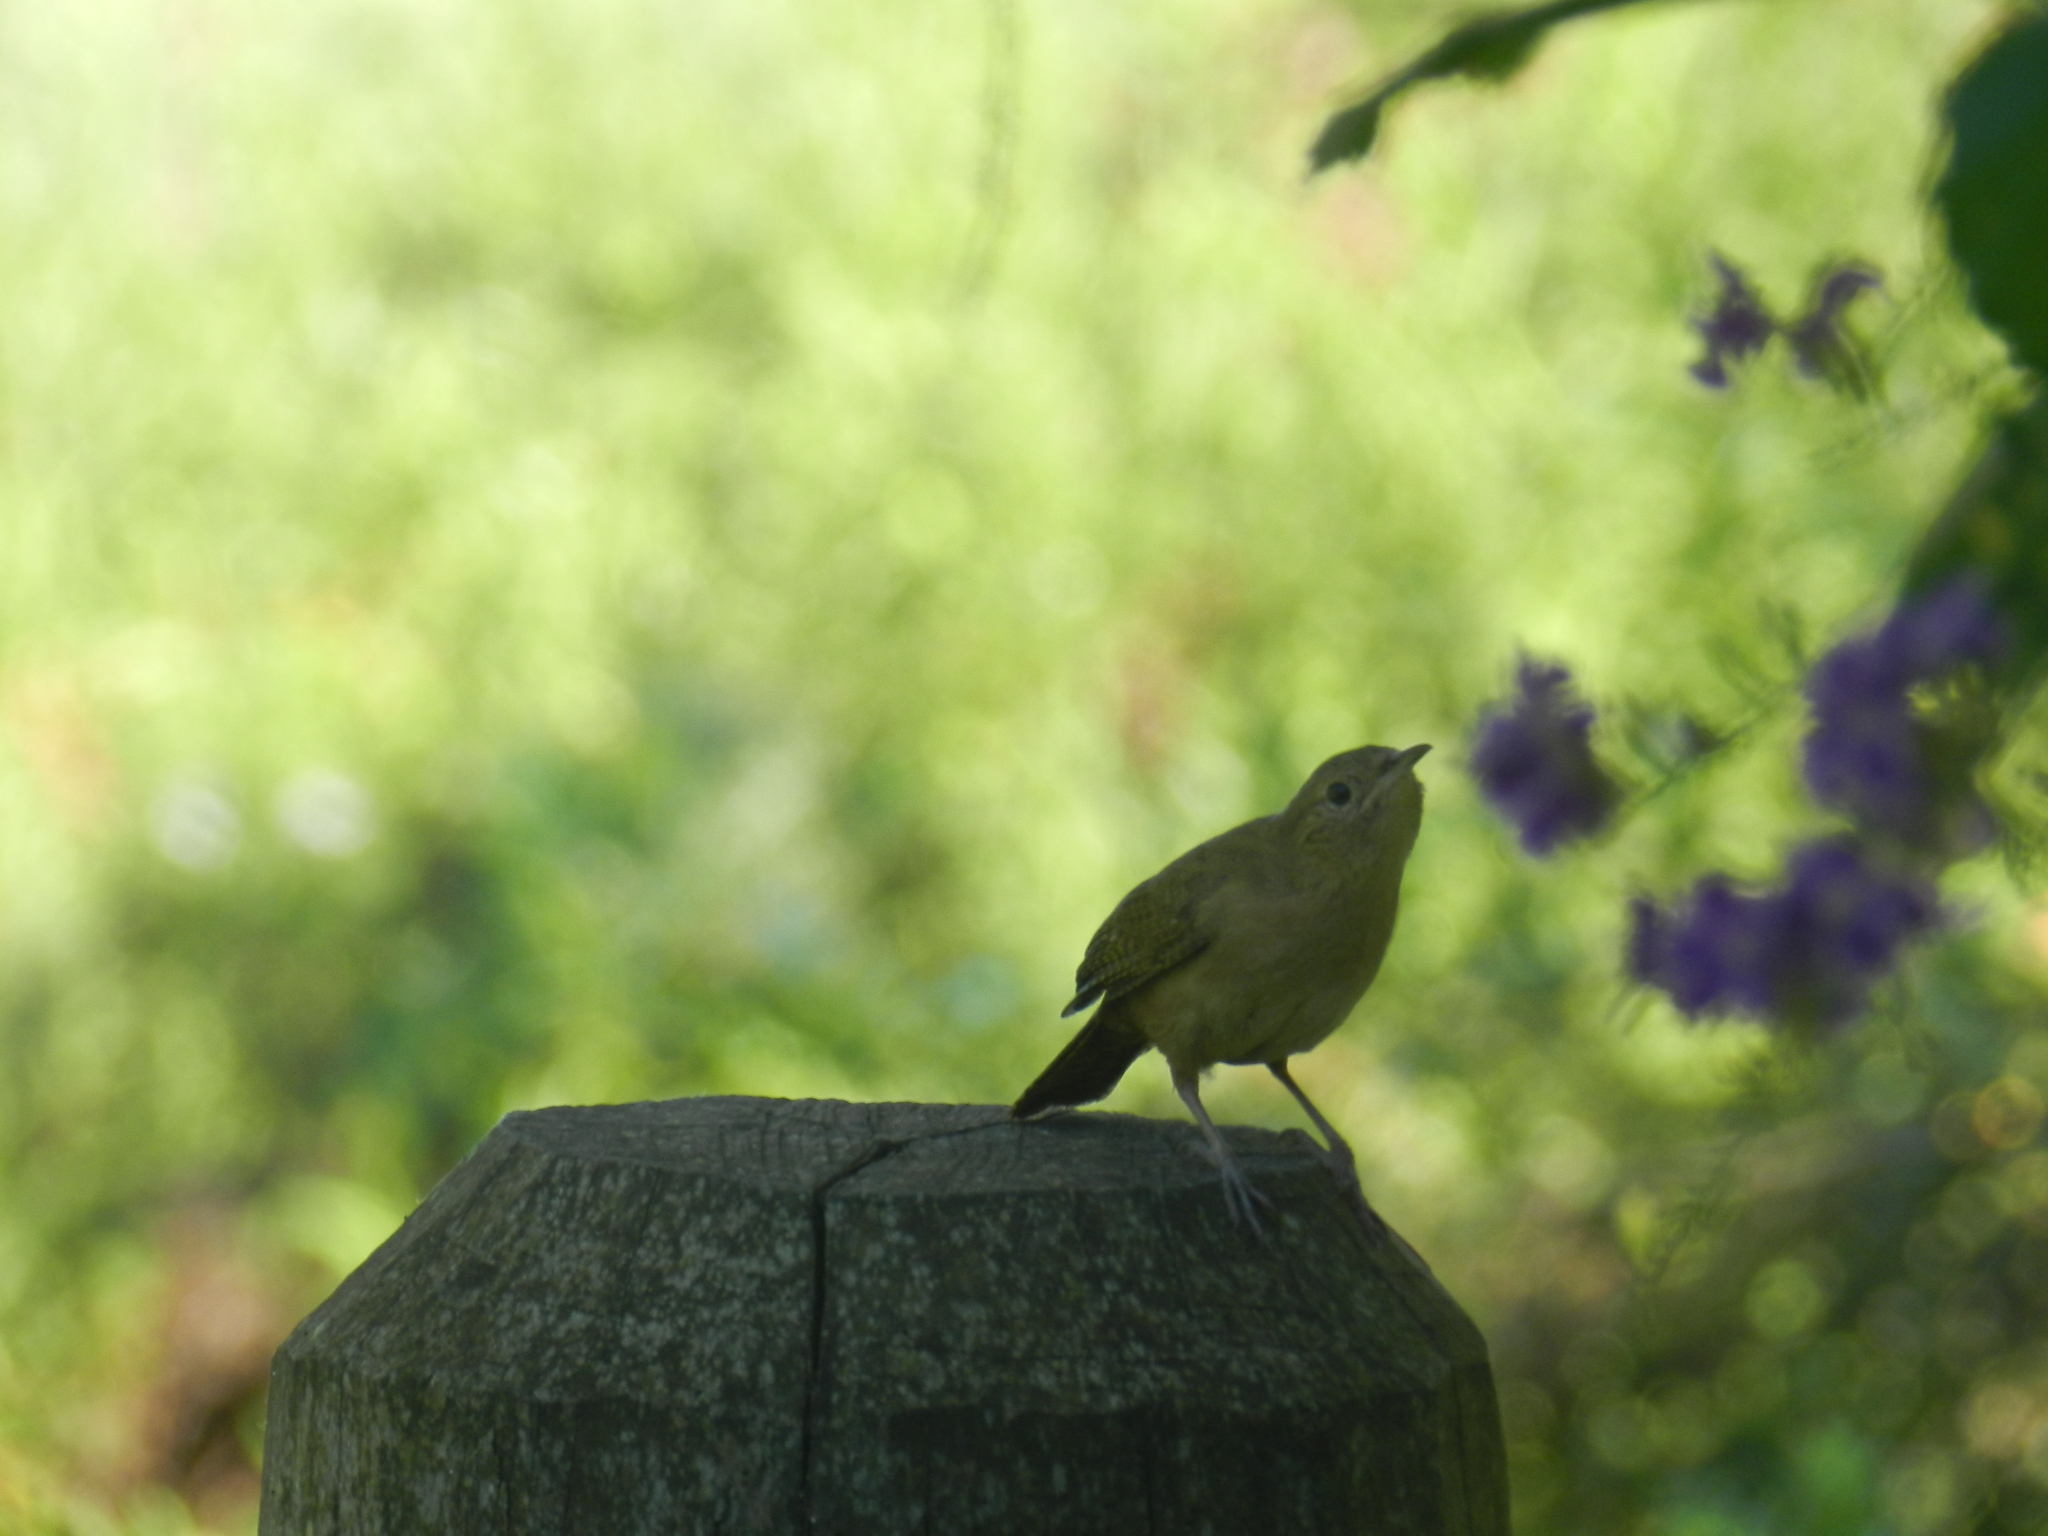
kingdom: Animalia
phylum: Chordata
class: Aves
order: Passeriformes
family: Troglodytidae
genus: Troglodytes
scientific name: Troglodytes aedon
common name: House wren
